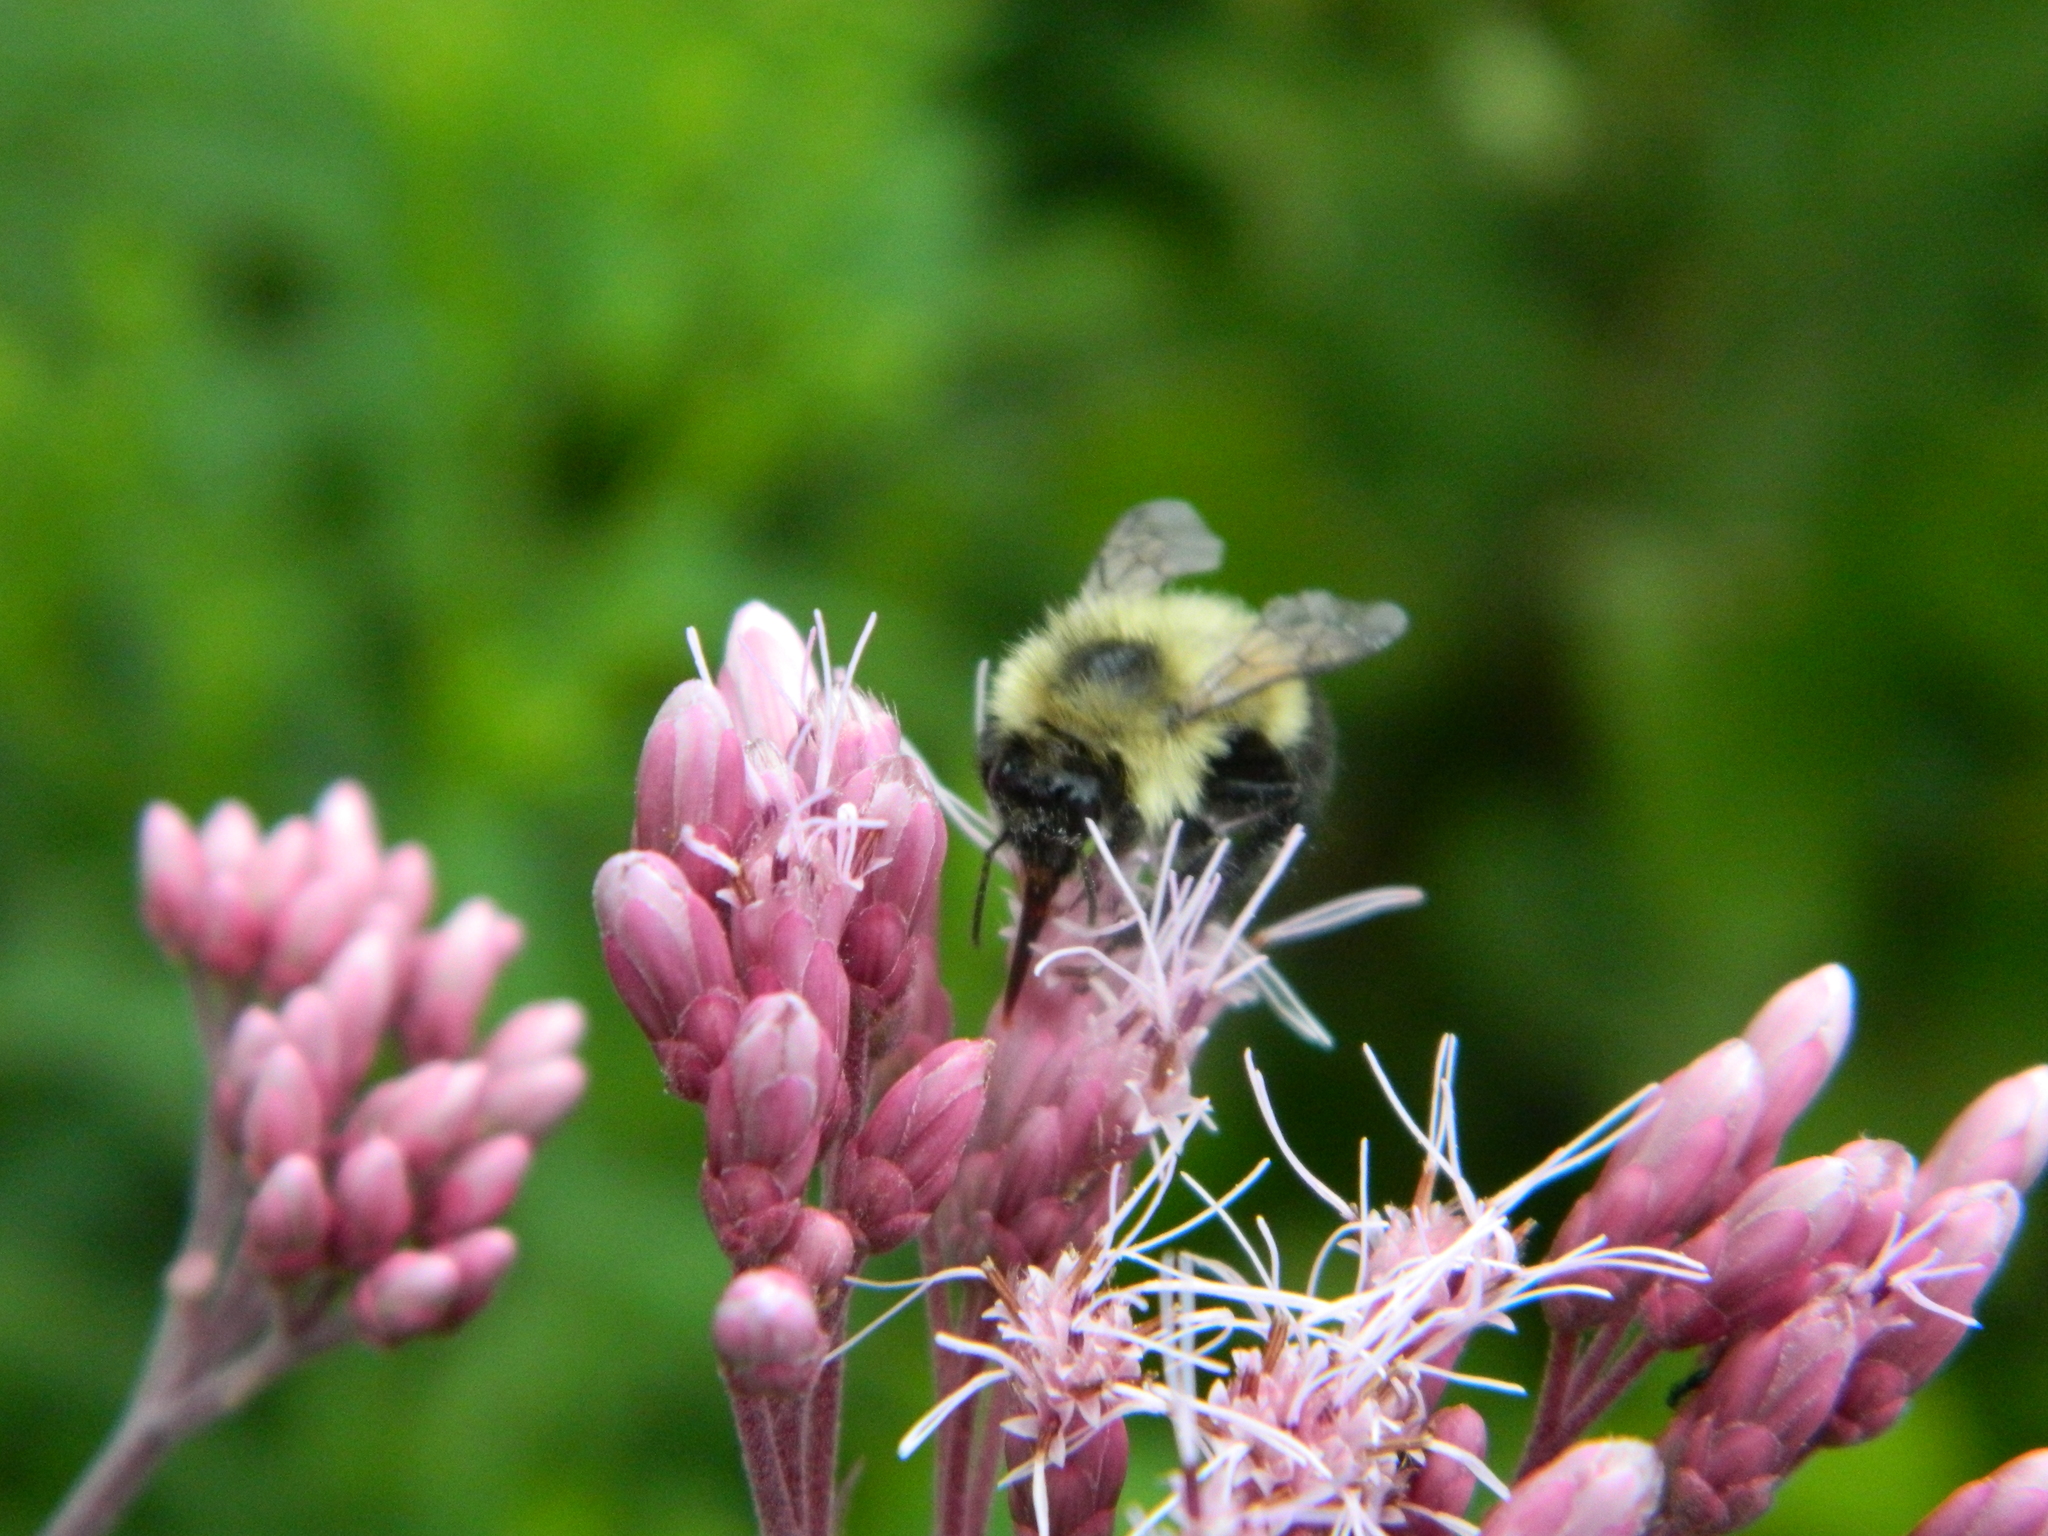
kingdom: Animalia
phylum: Arthropoda
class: Insecta
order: Hymenoptera
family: Apidae
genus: Bombus
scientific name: Bombus vagans
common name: Half-black bumble bee
